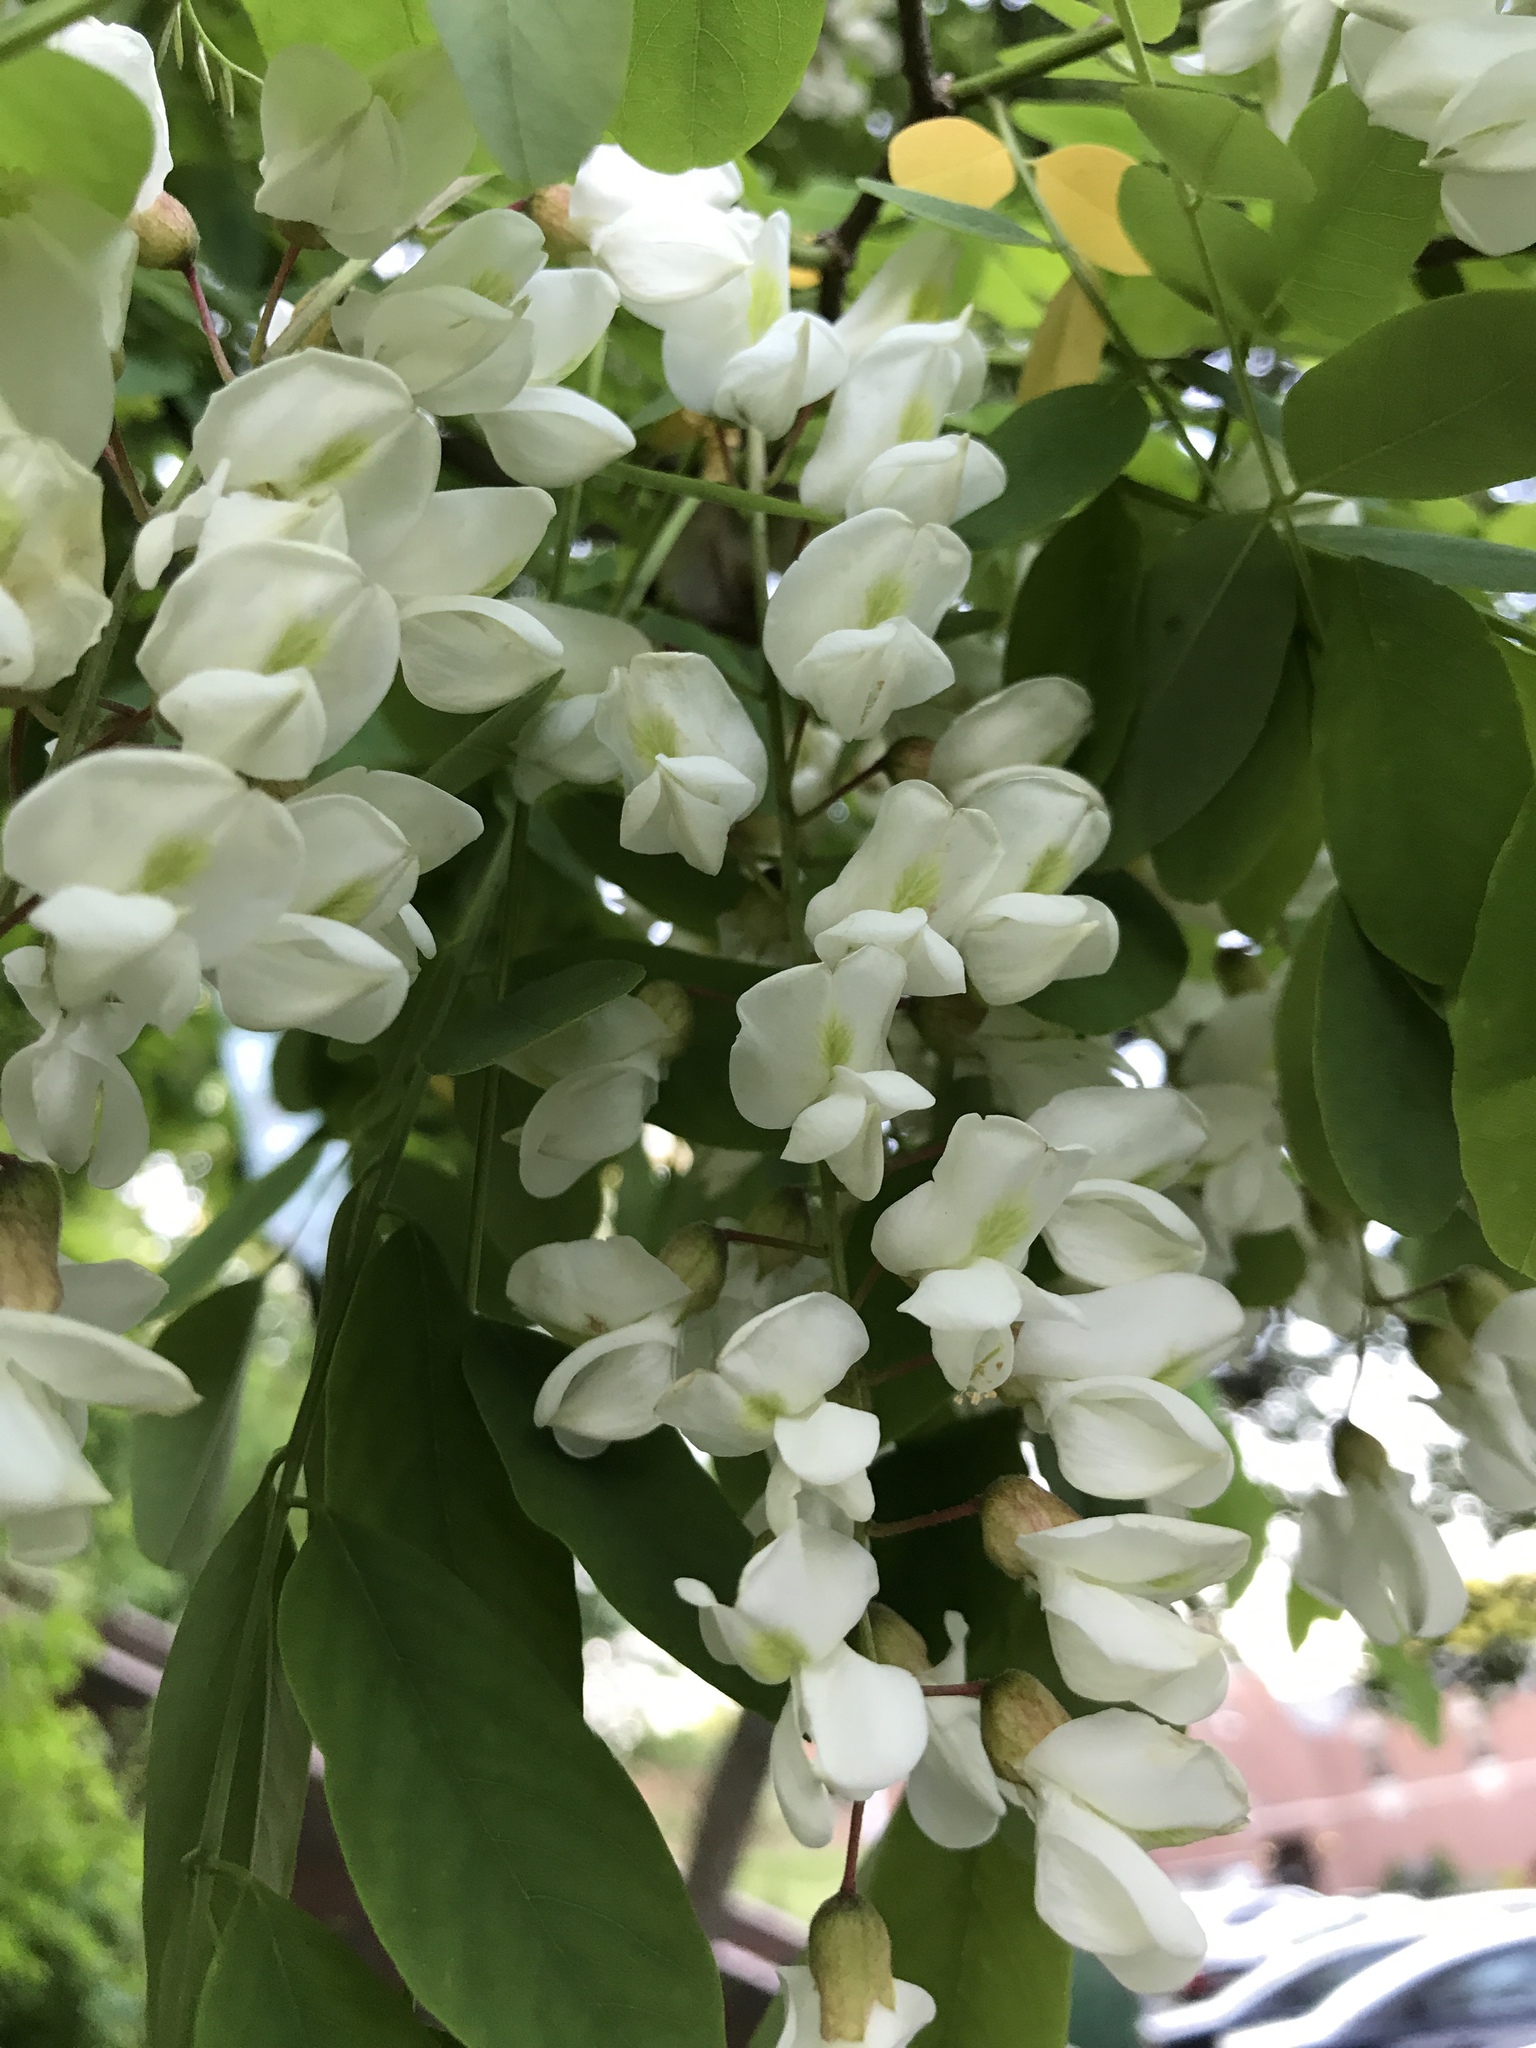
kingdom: Plantae
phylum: Tracheophyta
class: Magnoliopsida
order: Fabales
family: Fabaceae
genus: Robinia
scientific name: Robinia pseudoacacia
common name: Black locust
